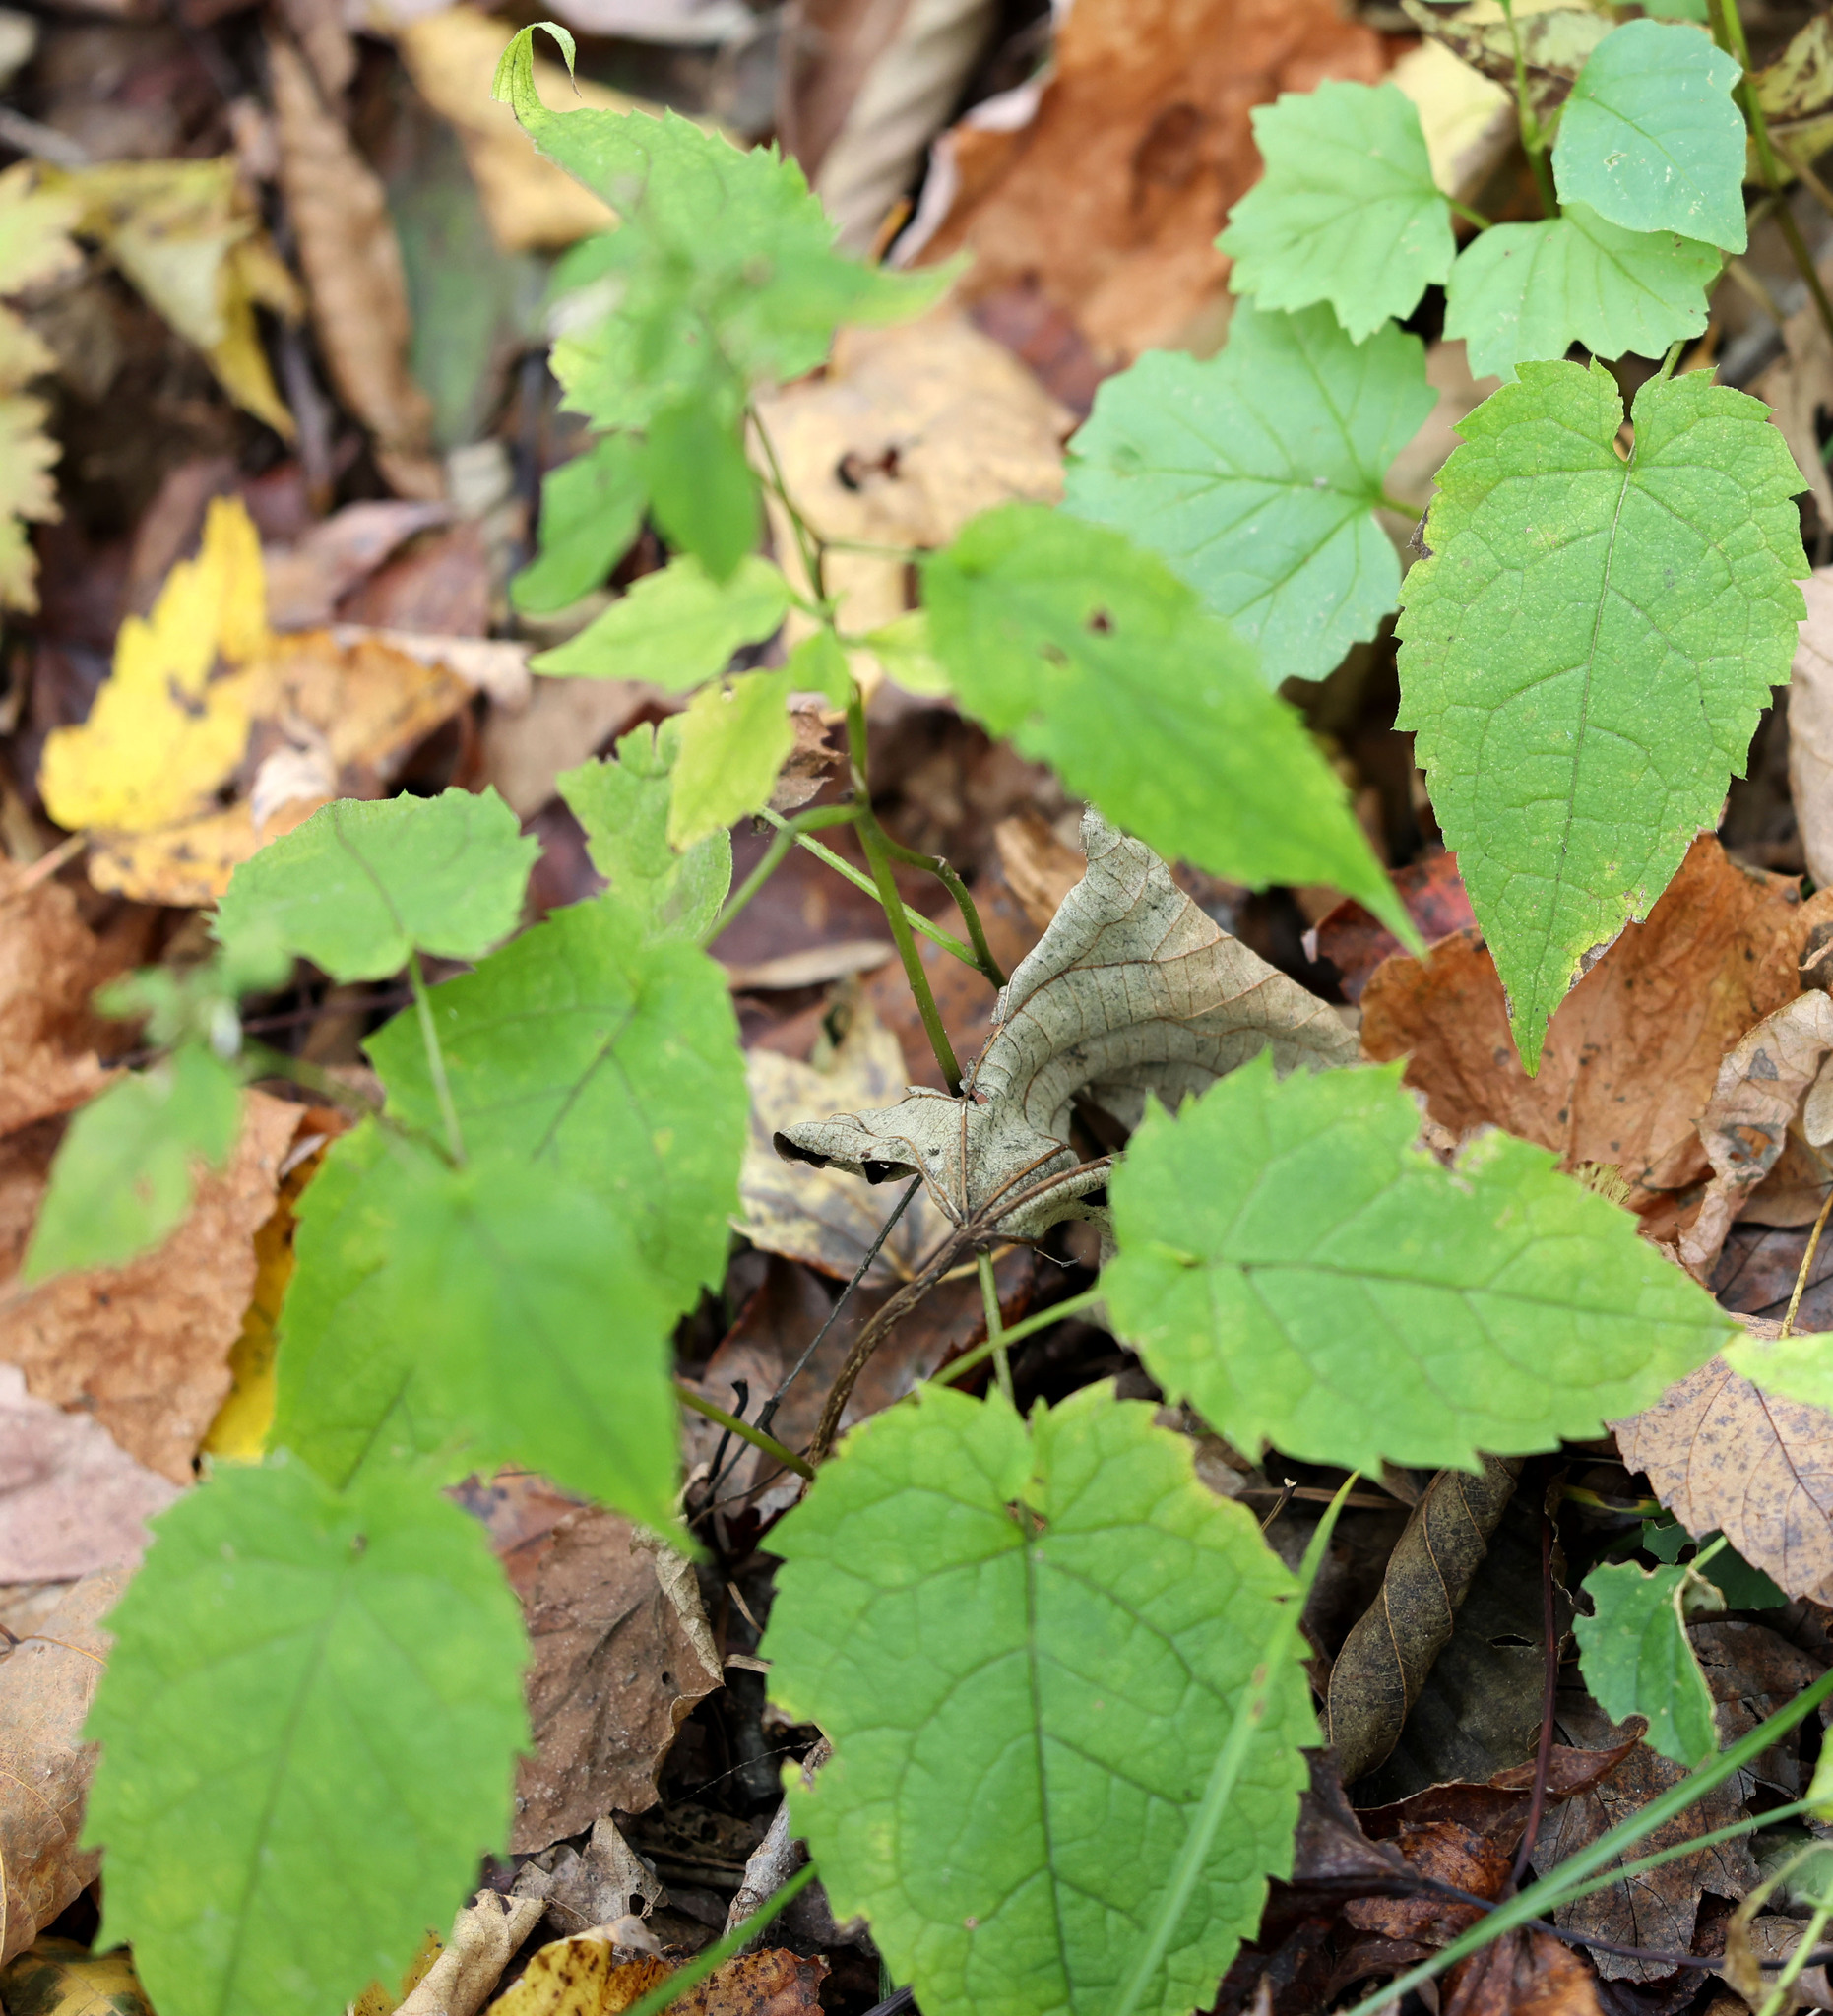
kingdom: Plantae
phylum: Tracheophyta
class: Magnoliopsida
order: Asterales
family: Asteraceae
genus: Eurybia
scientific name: Eurybia divaricata
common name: White wood aster
